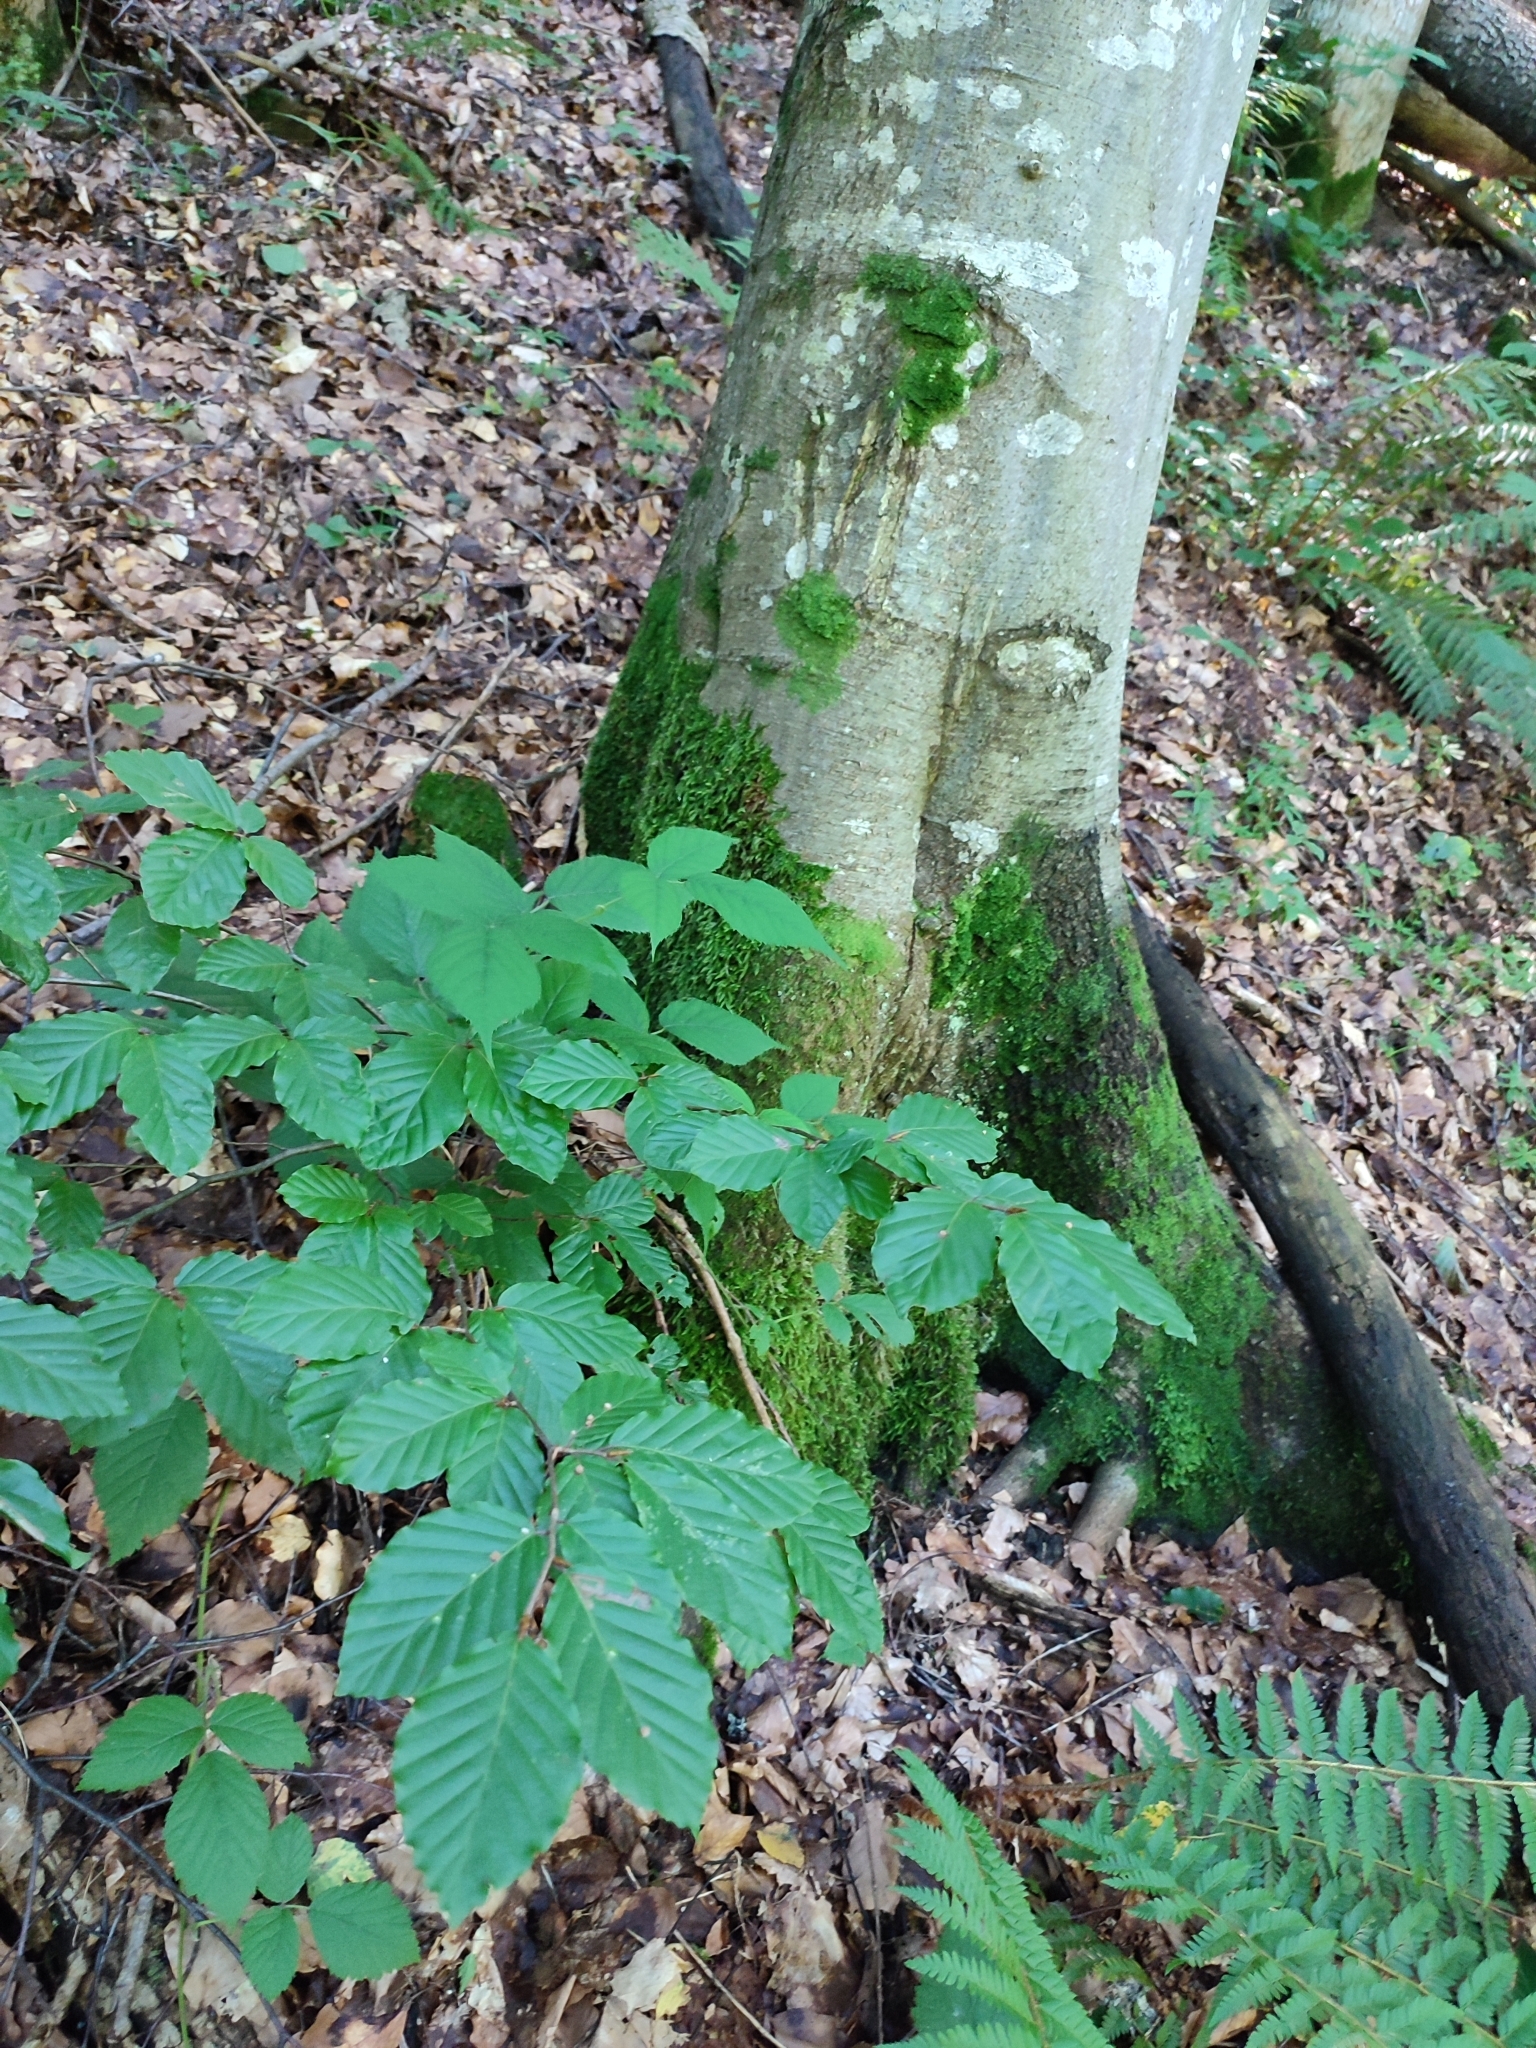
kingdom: Plantae
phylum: Tracheophyta
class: Magnoliopsida
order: Fagales
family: Fagaceae
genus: Fagus
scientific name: Fagus sylvatica
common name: Beech
